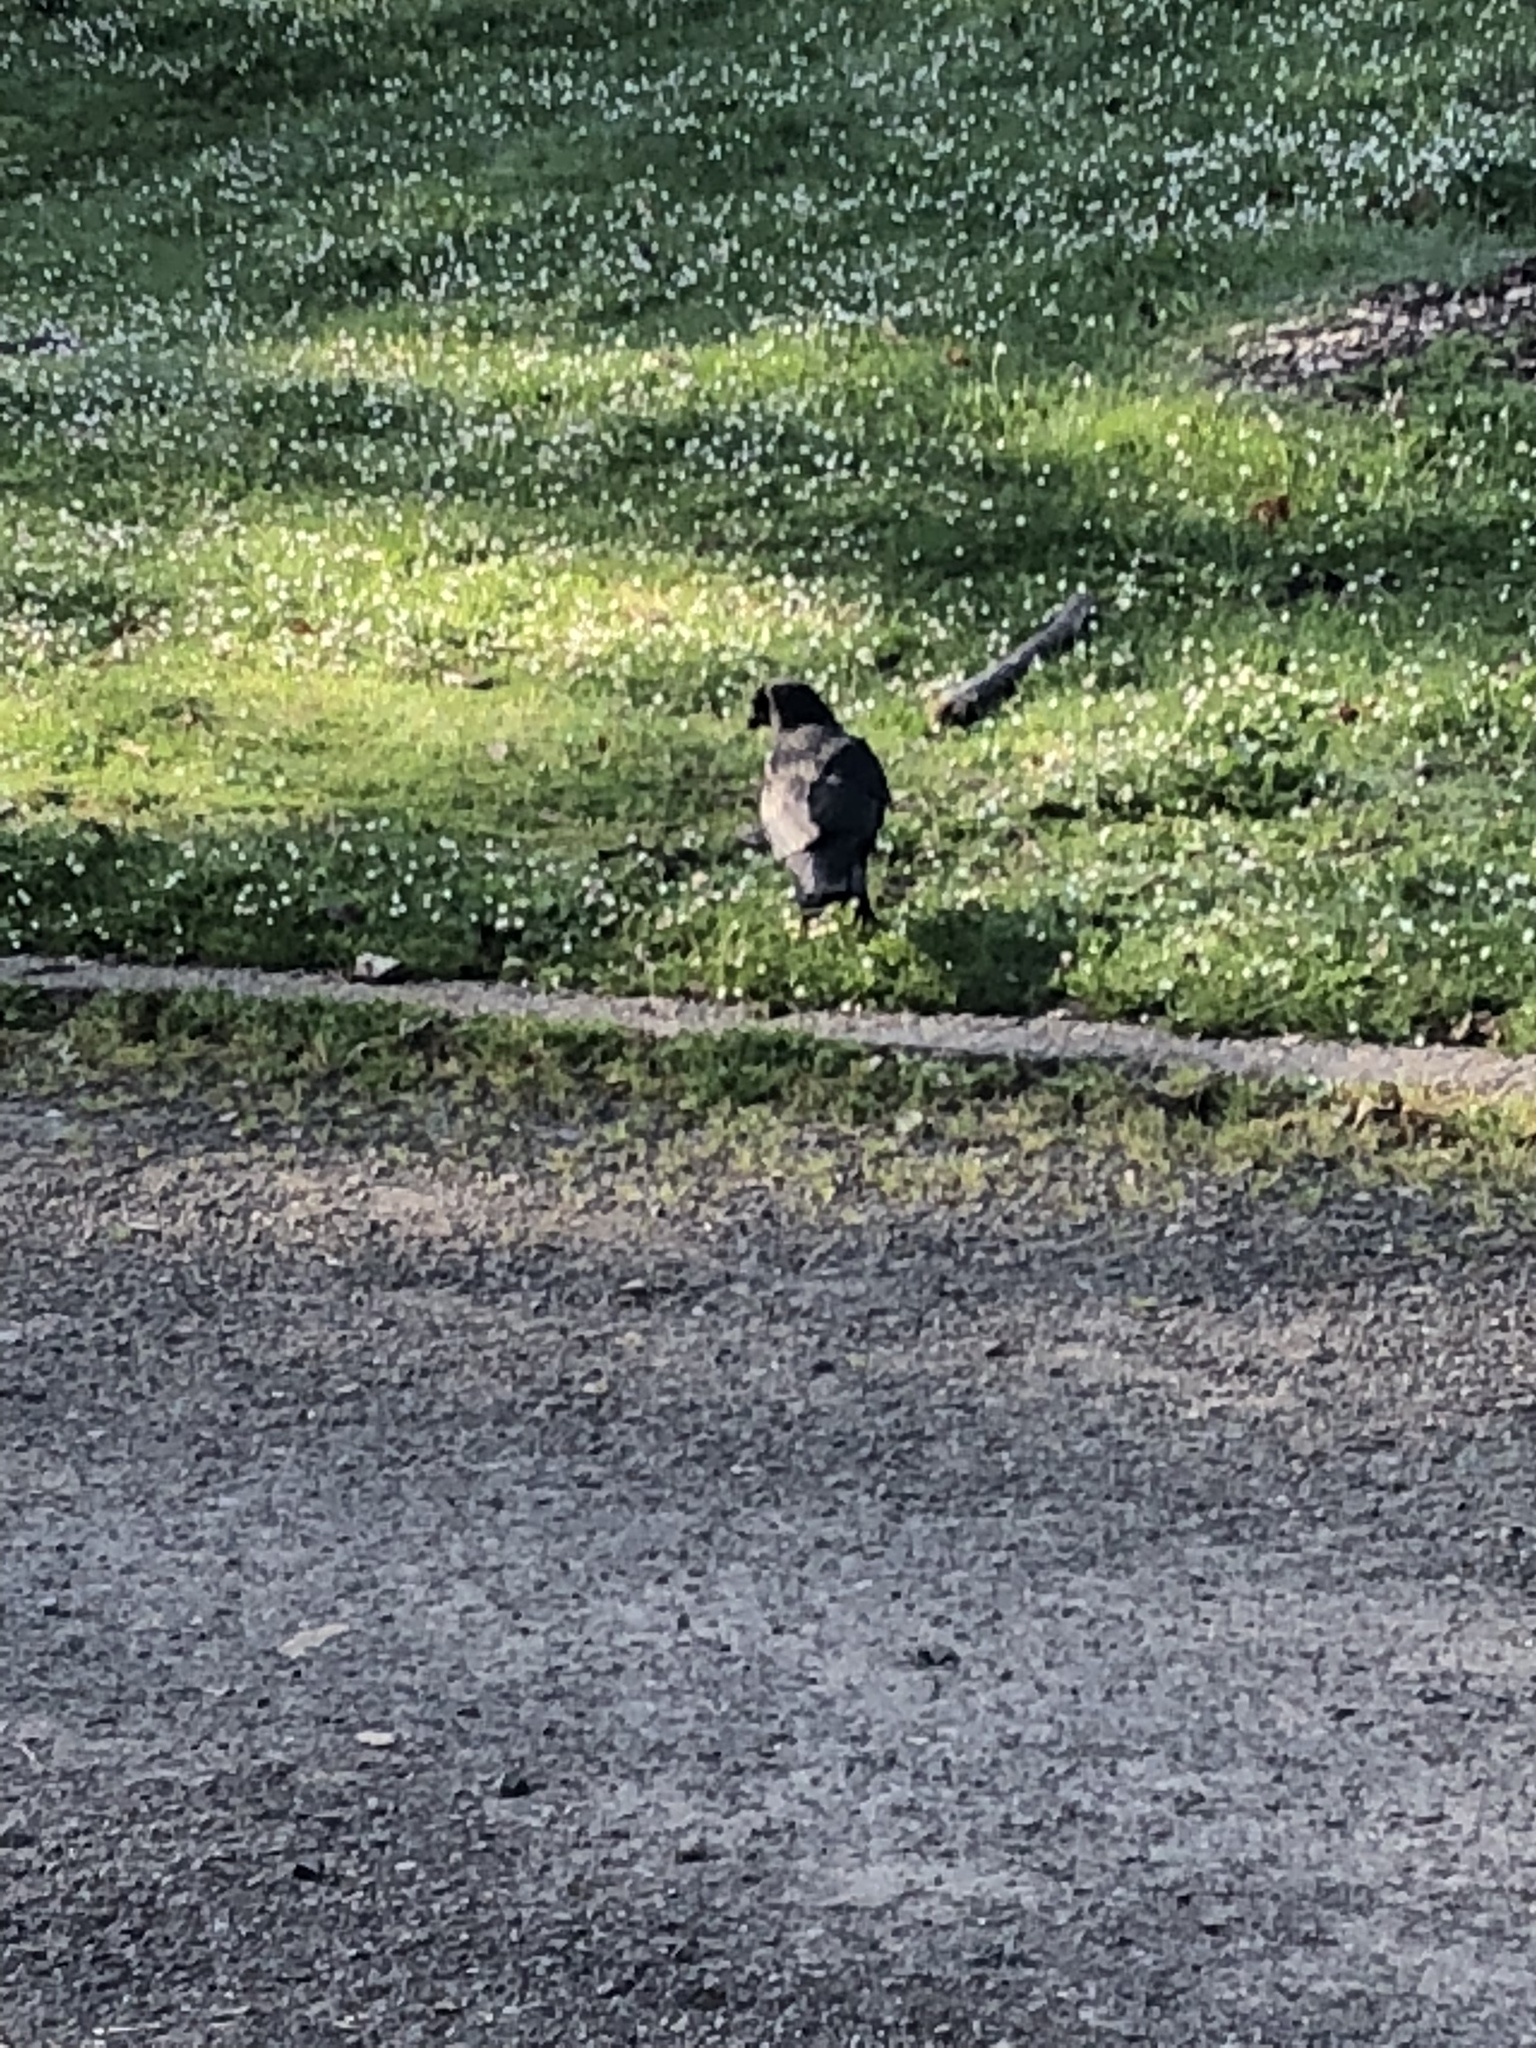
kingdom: Animalia
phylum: Chordata
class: Aves
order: Passeriformes
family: Corvidae
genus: Corvus
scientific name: Corvus brachyrhynchos
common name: American crow
